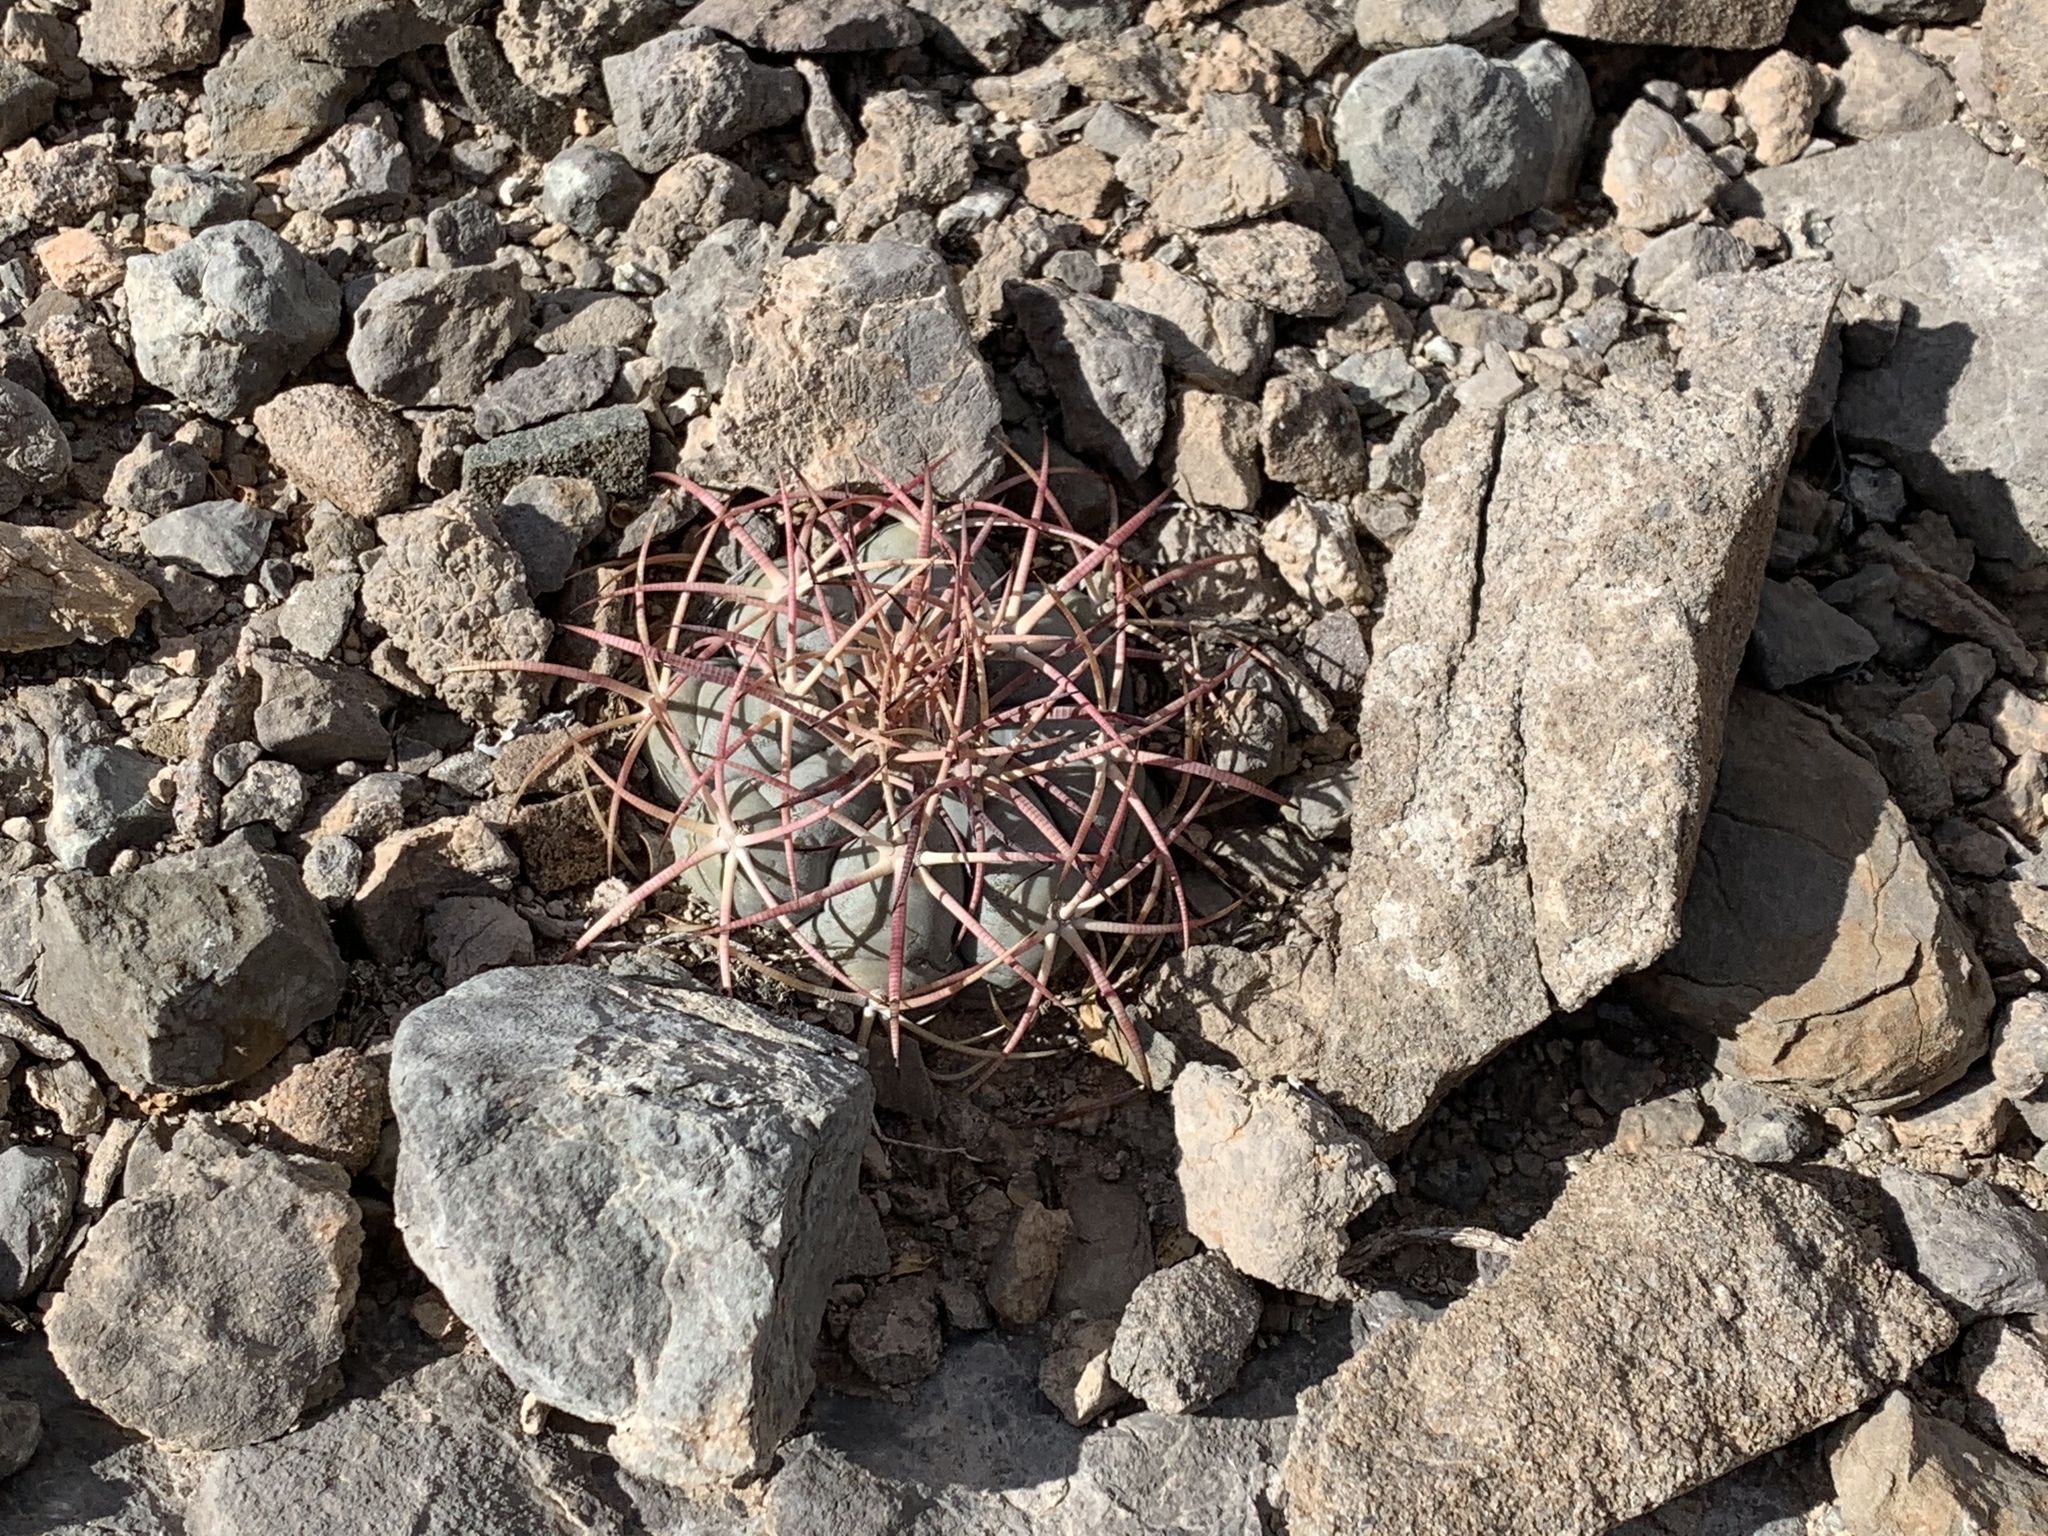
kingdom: Plantae
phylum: Tracheophyta
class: Magnoliopsida
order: Caryophyllales
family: Cactaceae
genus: Echinocactus
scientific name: Echinocactus horizonthalonius
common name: Devilshead
